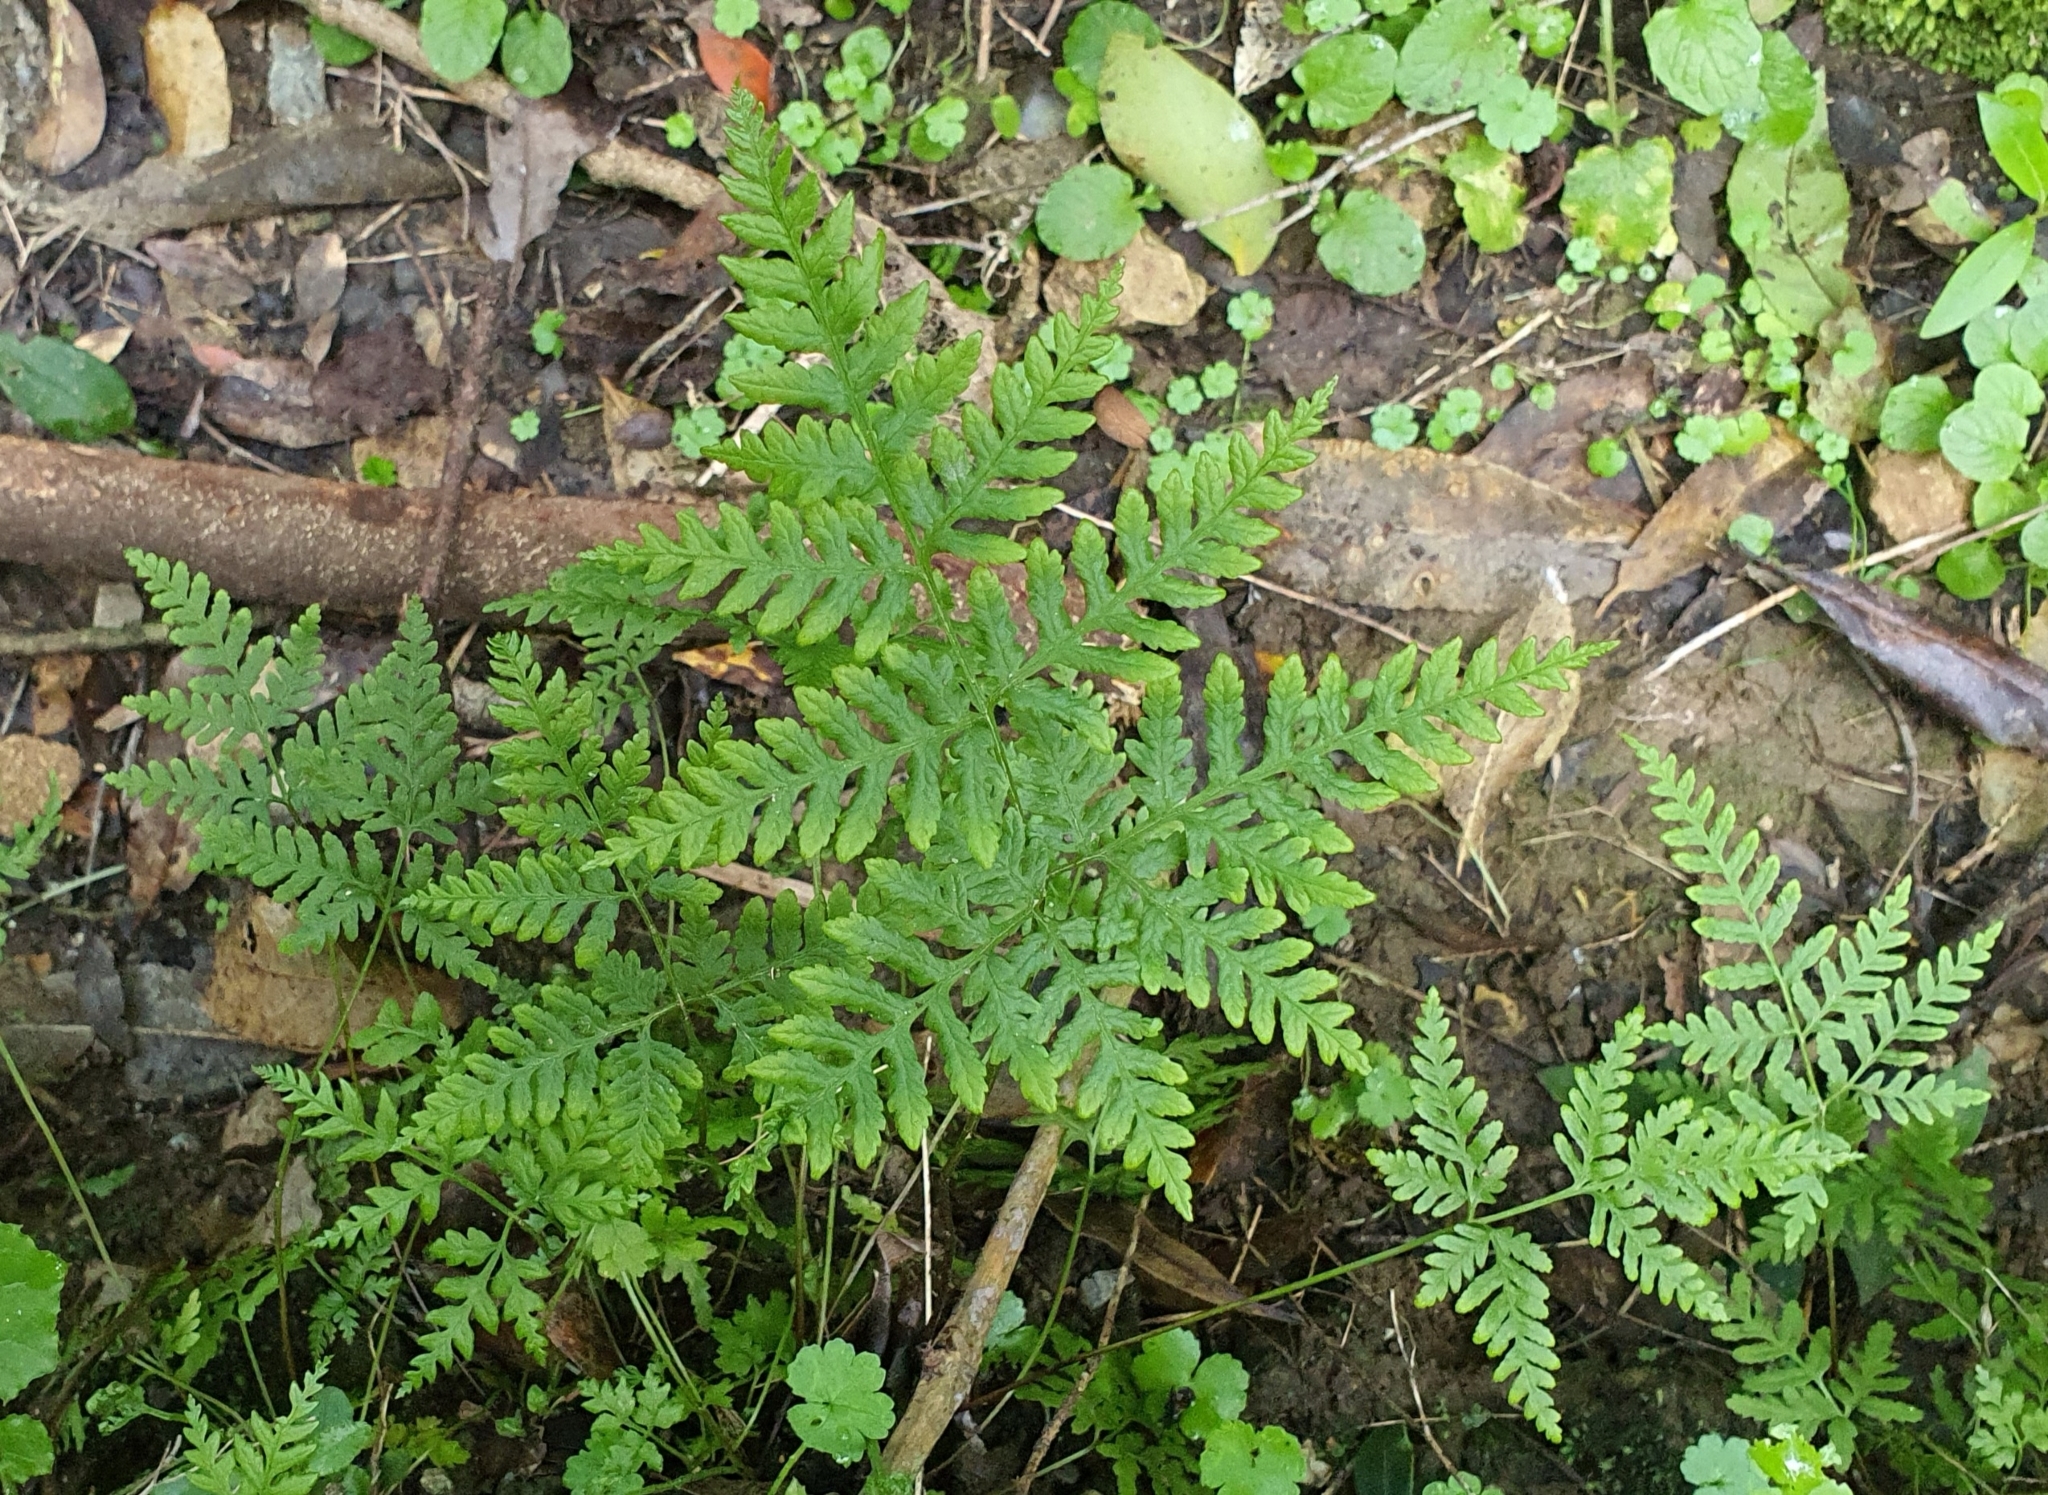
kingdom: Plantae
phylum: Tracheophyta
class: Polypodiopsida
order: Polypodiales
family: Pteridaceae
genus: Pteris
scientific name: Pteris tremula
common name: Australian brake
